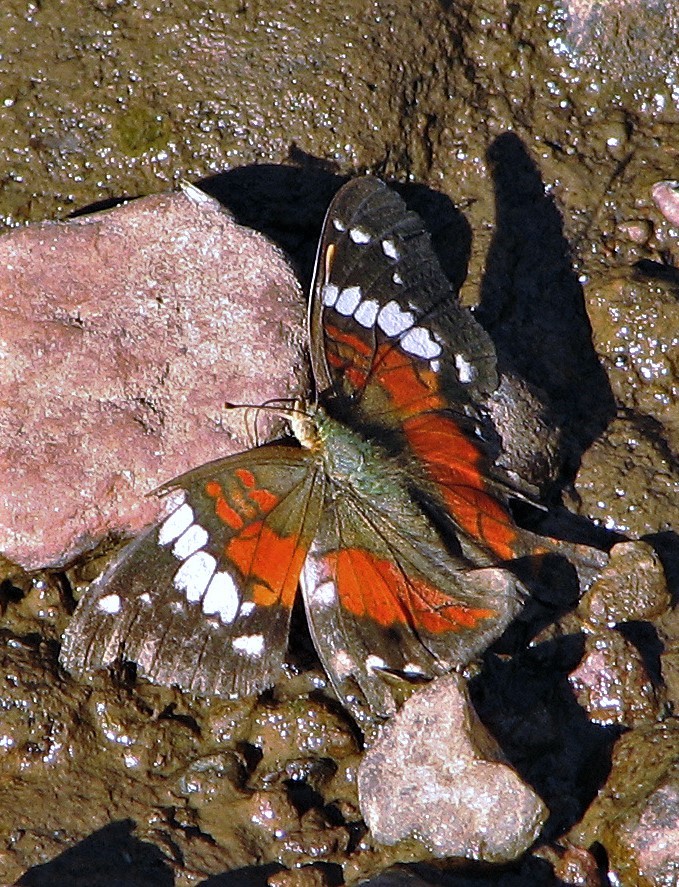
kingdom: Animalia
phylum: Arthropoda
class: Insecta
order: Lepidoptera
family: Nymphalidae
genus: Anartia
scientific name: Anartia amathea
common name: Red peacock
